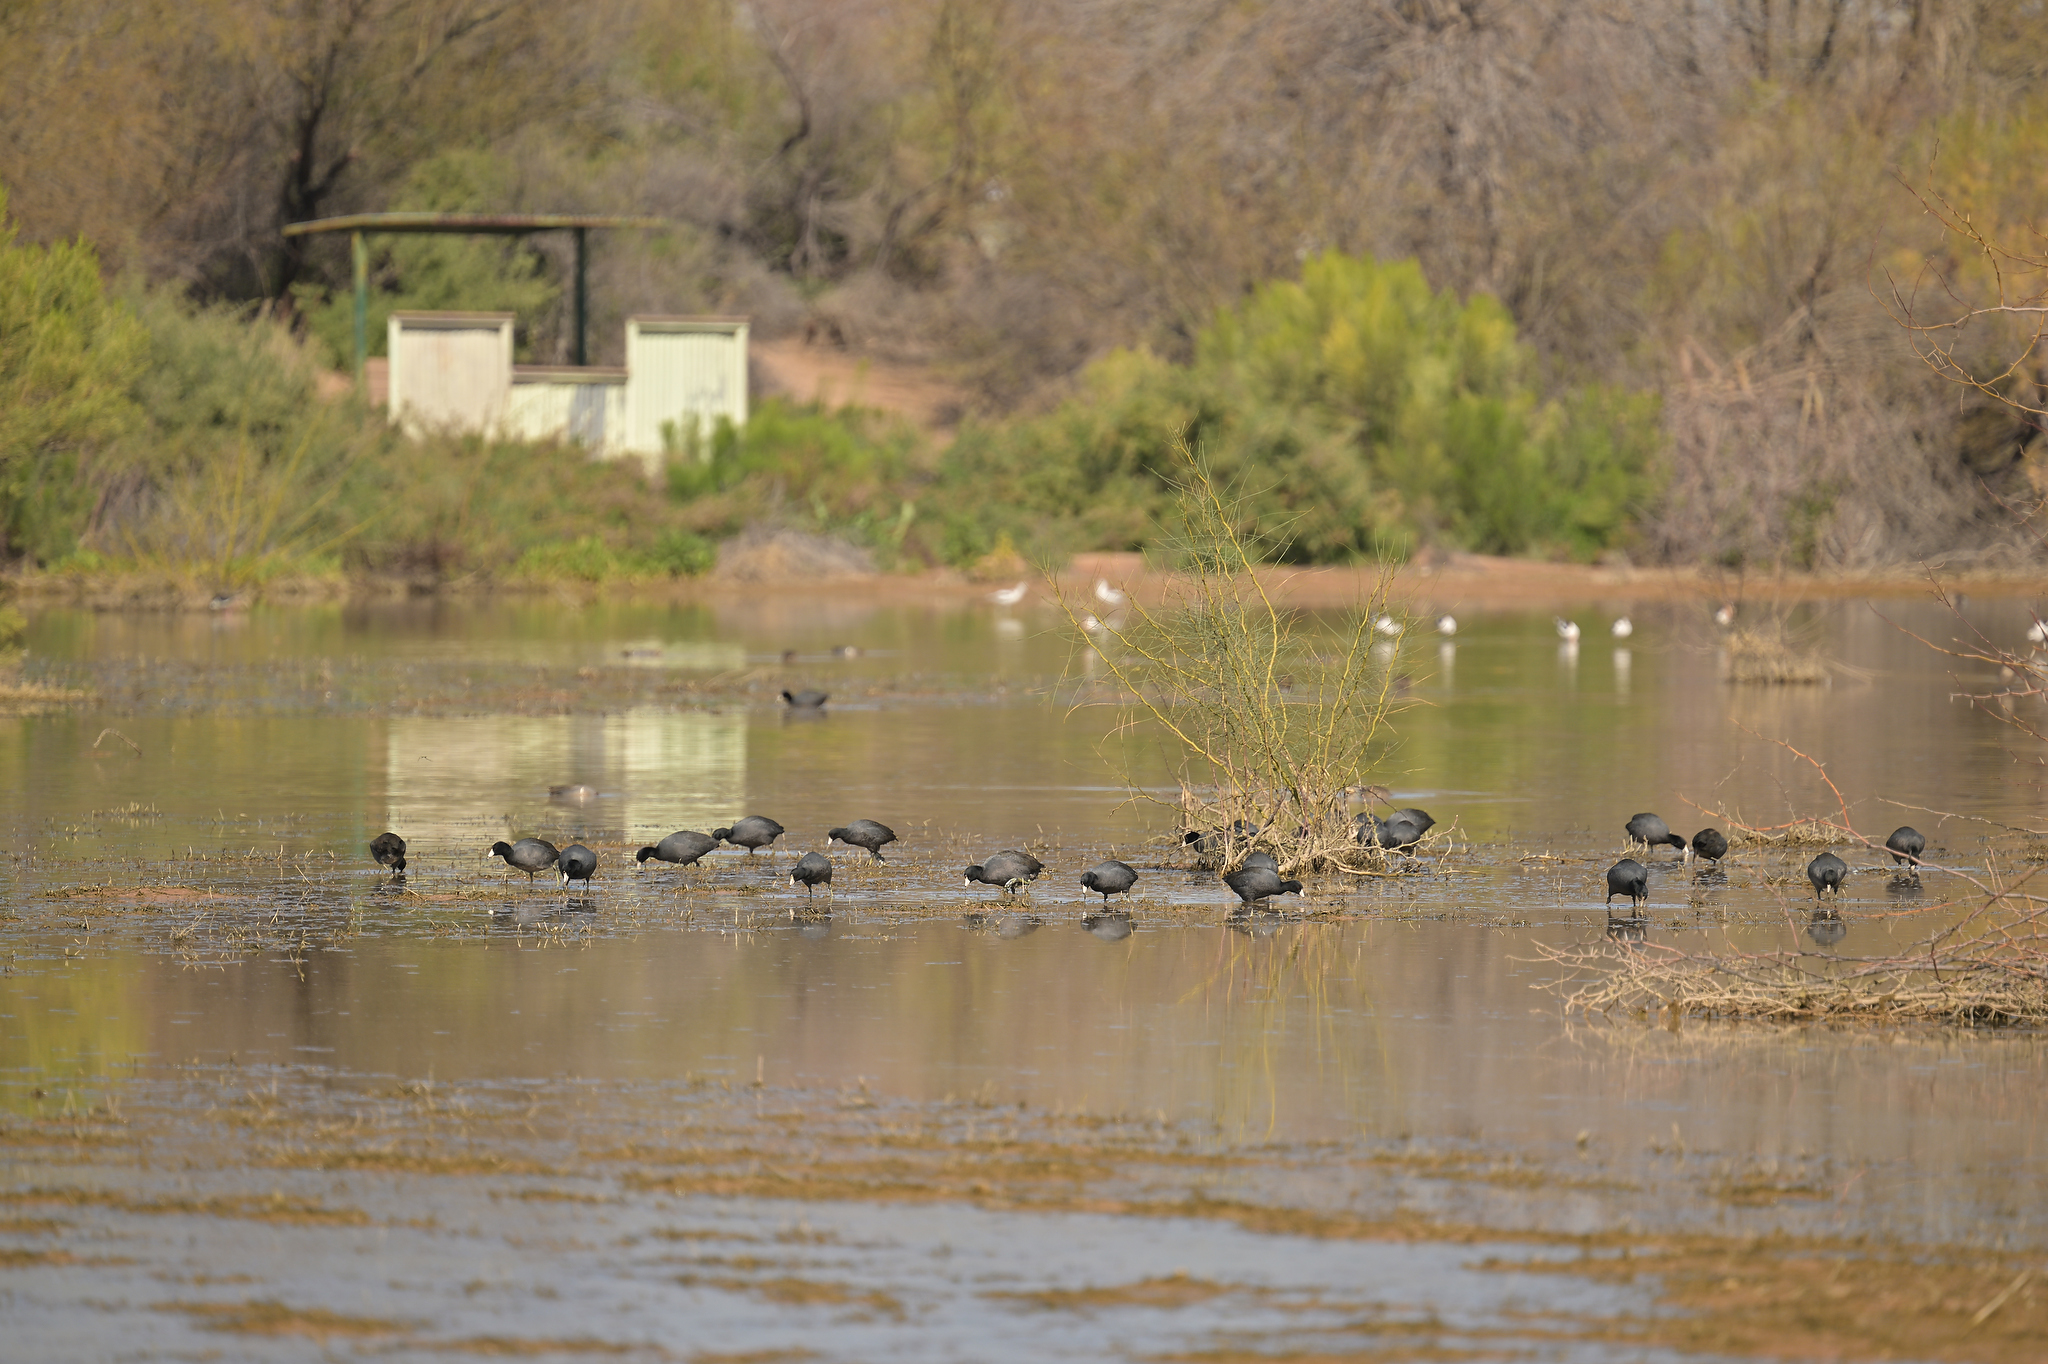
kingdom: Animalia
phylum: Chordata
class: Aves
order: Gruiformes
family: Rallidae
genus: Fulica
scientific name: Fulica americana
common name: American coot
